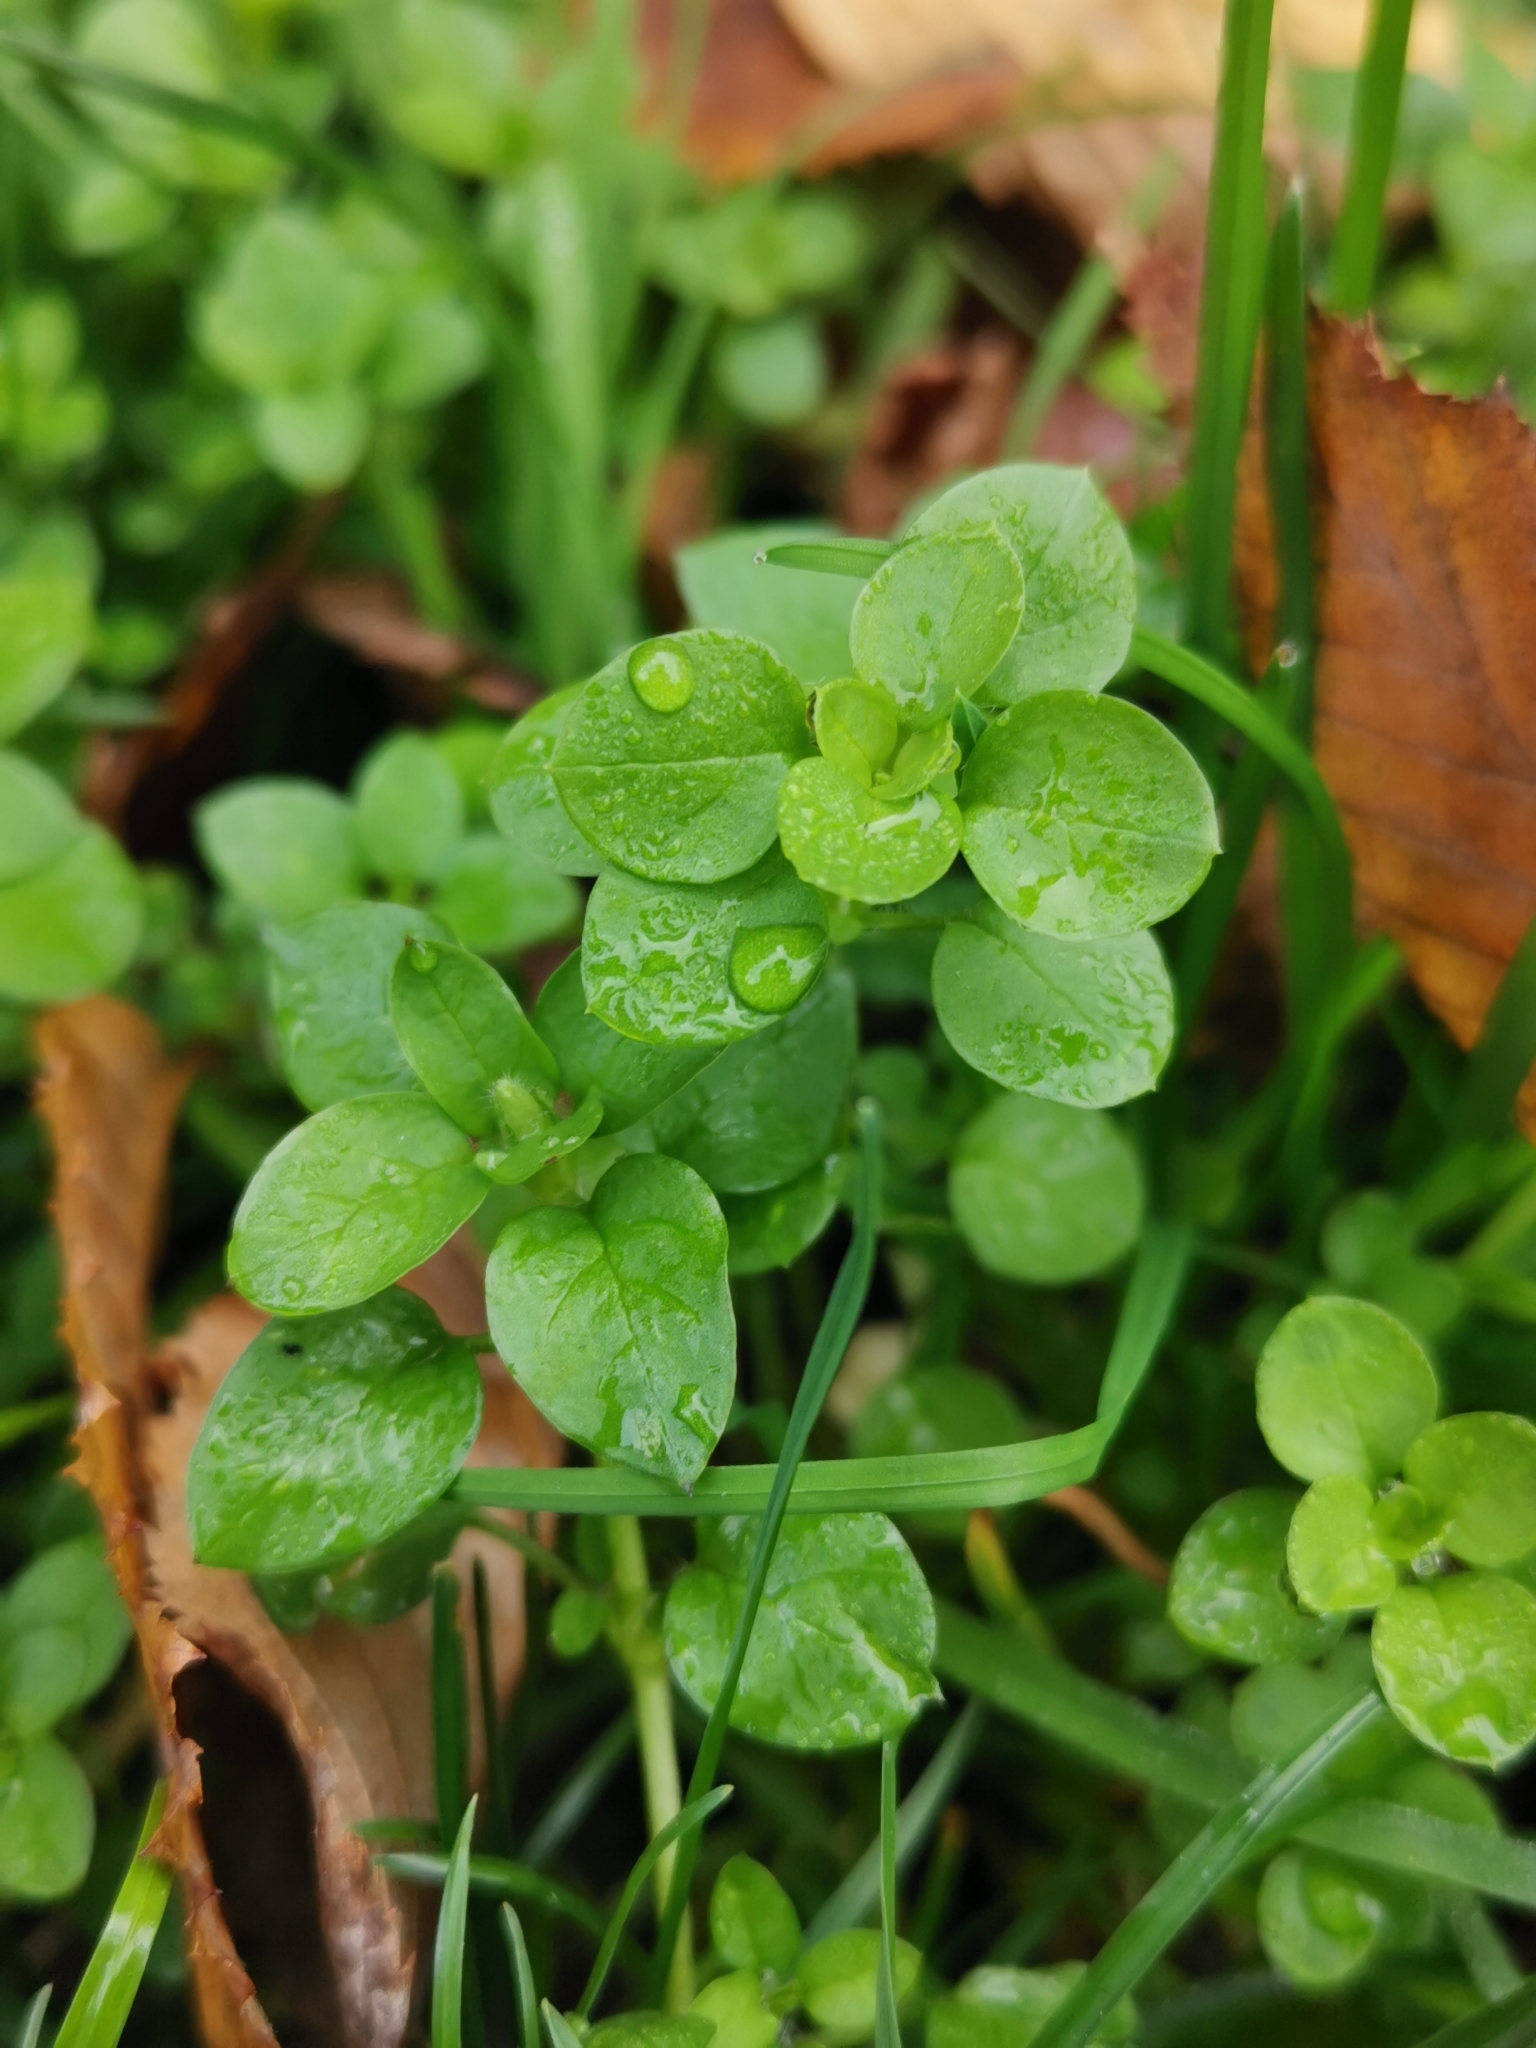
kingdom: Plantae
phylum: Tracheophyta
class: Magnoliopsida
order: Caryophyllales
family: Caryophyllaceae
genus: Stellaria
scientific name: Stellaria media
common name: Common chickweed
